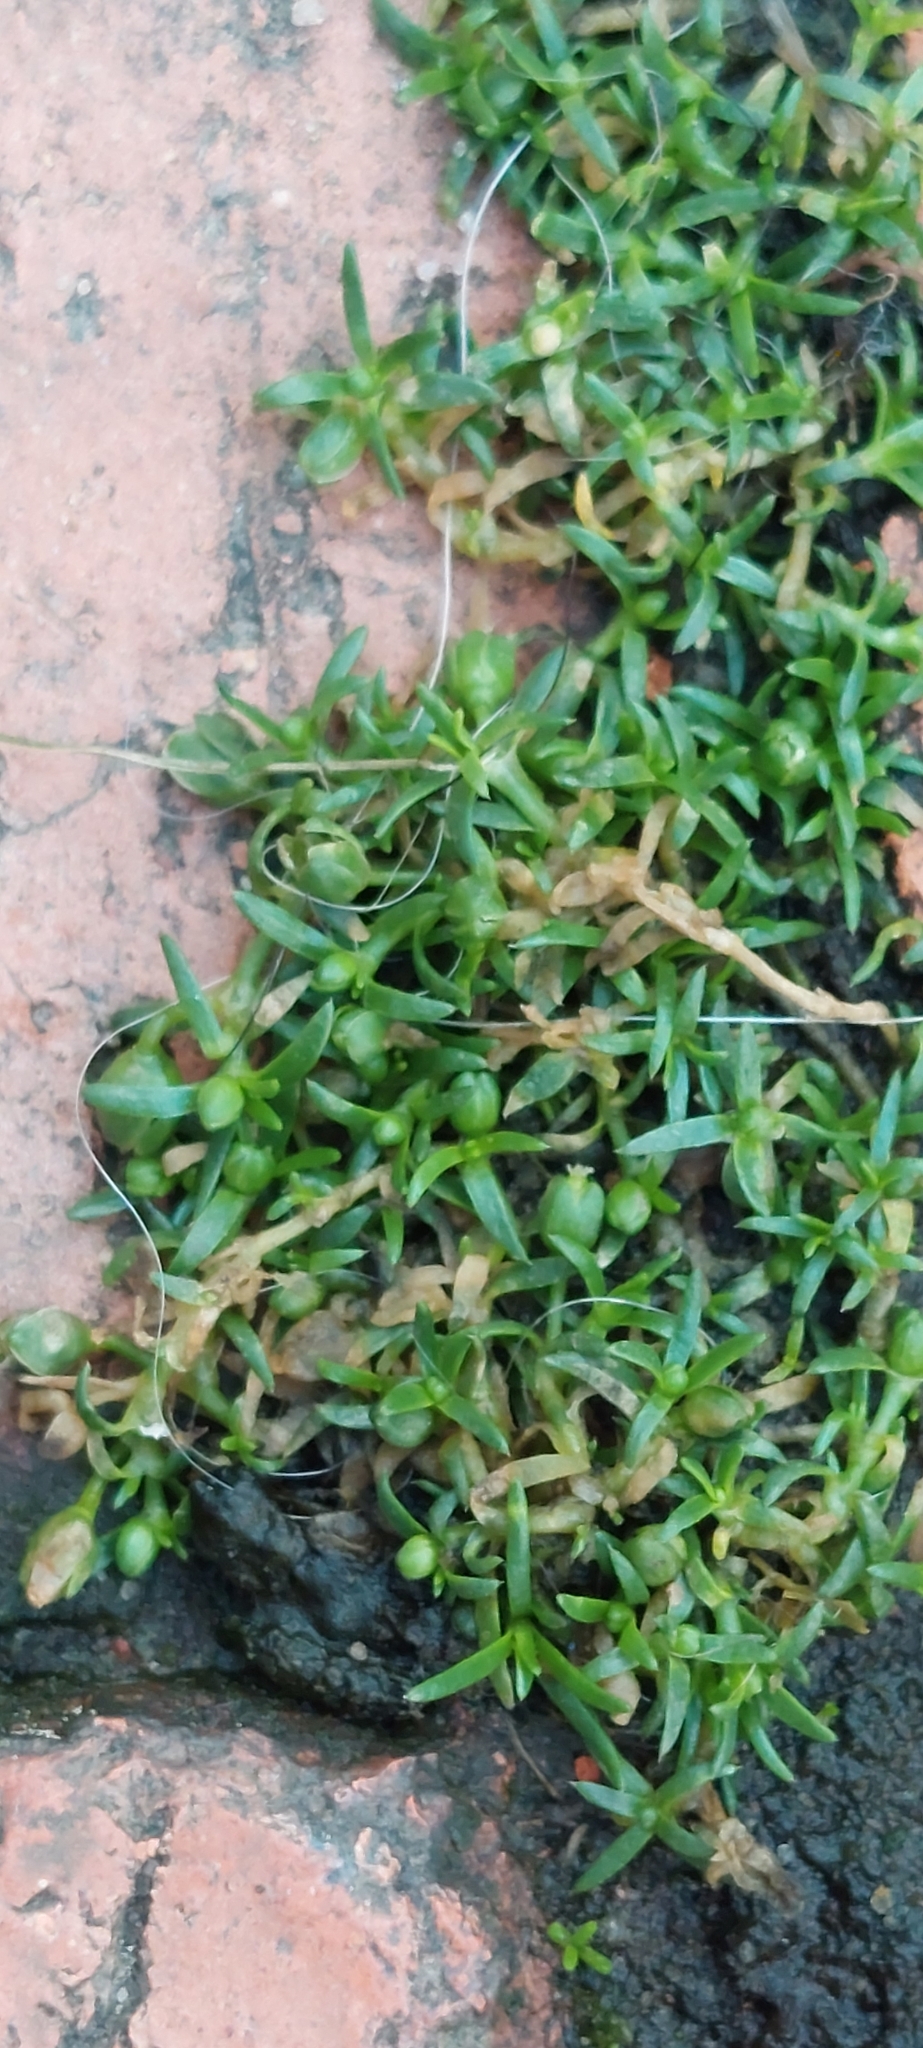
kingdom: Plantae
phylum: Tracheophyta
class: Magnoliopsida
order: Caryophyllales
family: Caryophyllaceae
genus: Sagina
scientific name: Sagina procumbens
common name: Procumbent pearlwort
